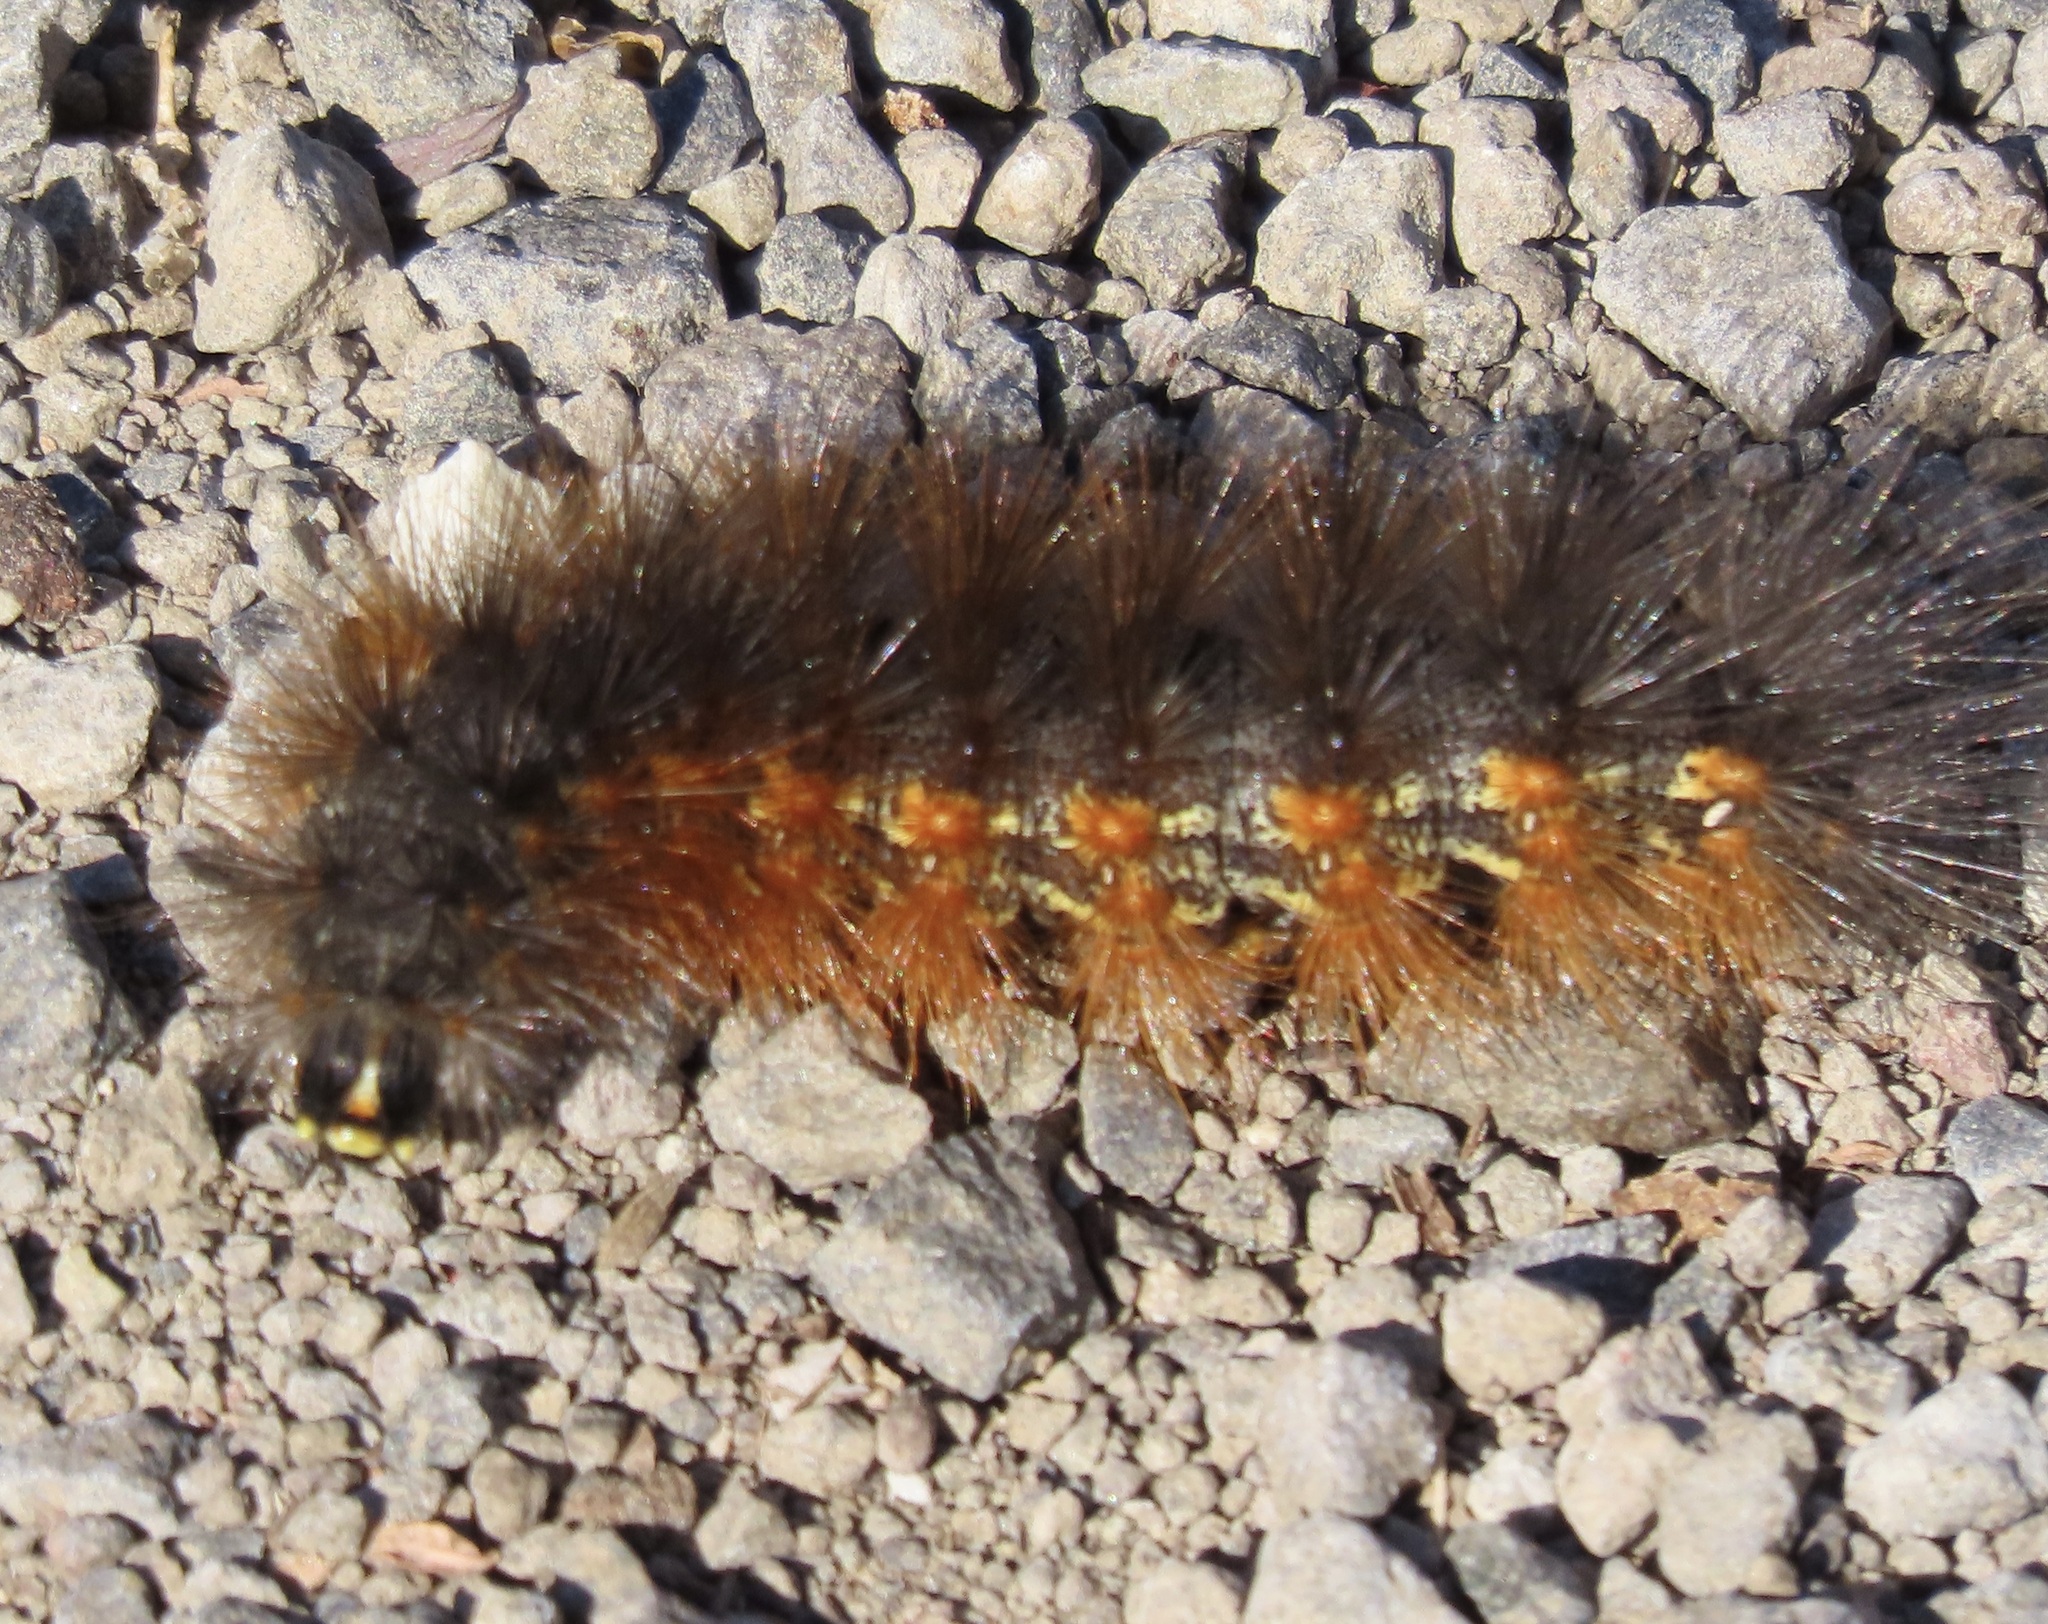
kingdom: Animalia
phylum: Arthropoda
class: Insecta
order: Lepidoptera
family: Erebidae
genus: Estigmene
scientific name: Estigmene acrea
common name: Salt marsh moth
